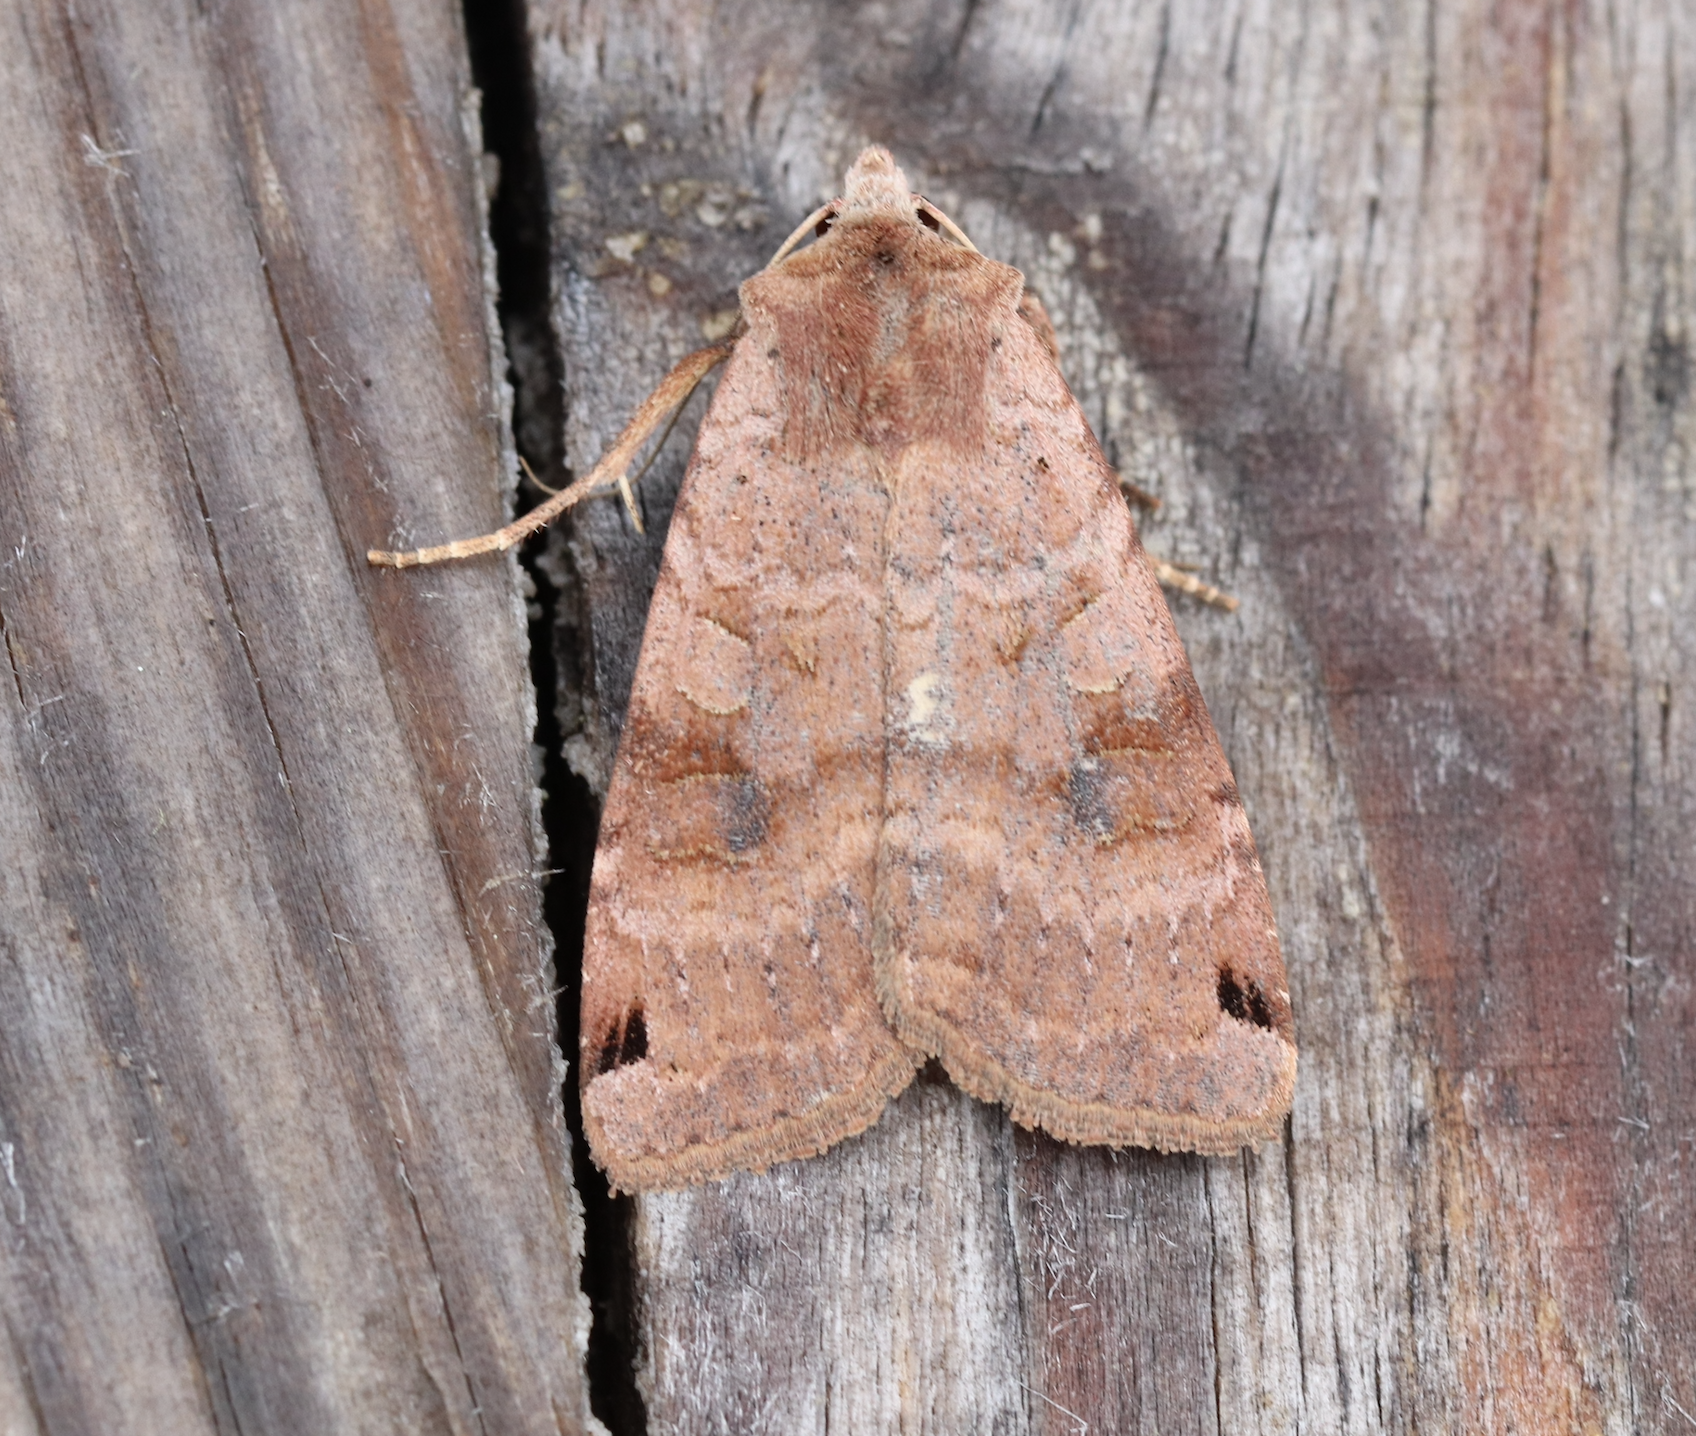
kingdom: Animalia
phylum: Arthropoda
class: Insecta
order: Lepidoptera
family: Noctuidae
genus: Xestia
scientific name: Xestia baja
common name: Dotted clay
